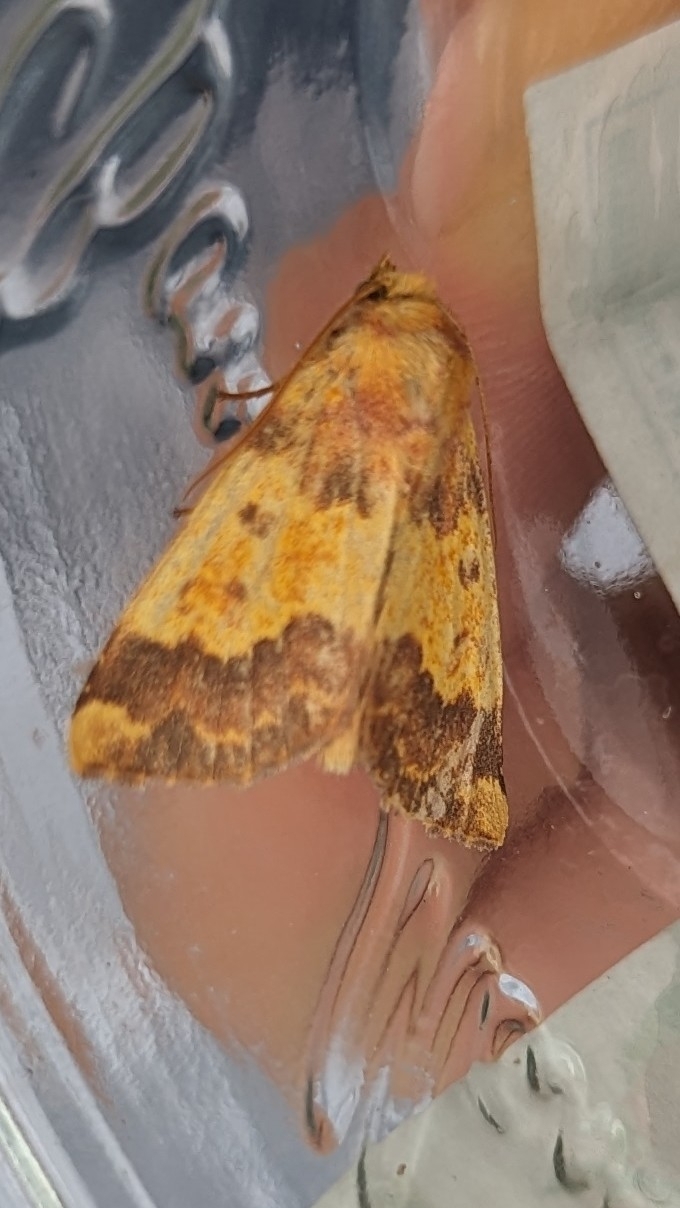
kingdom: Animalia
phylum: Arthropoda
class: Insecta
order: Lepidoptera
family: Noctuidae
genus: Tiliacea
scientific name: Tiliacea aurago
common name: Barred sallow
